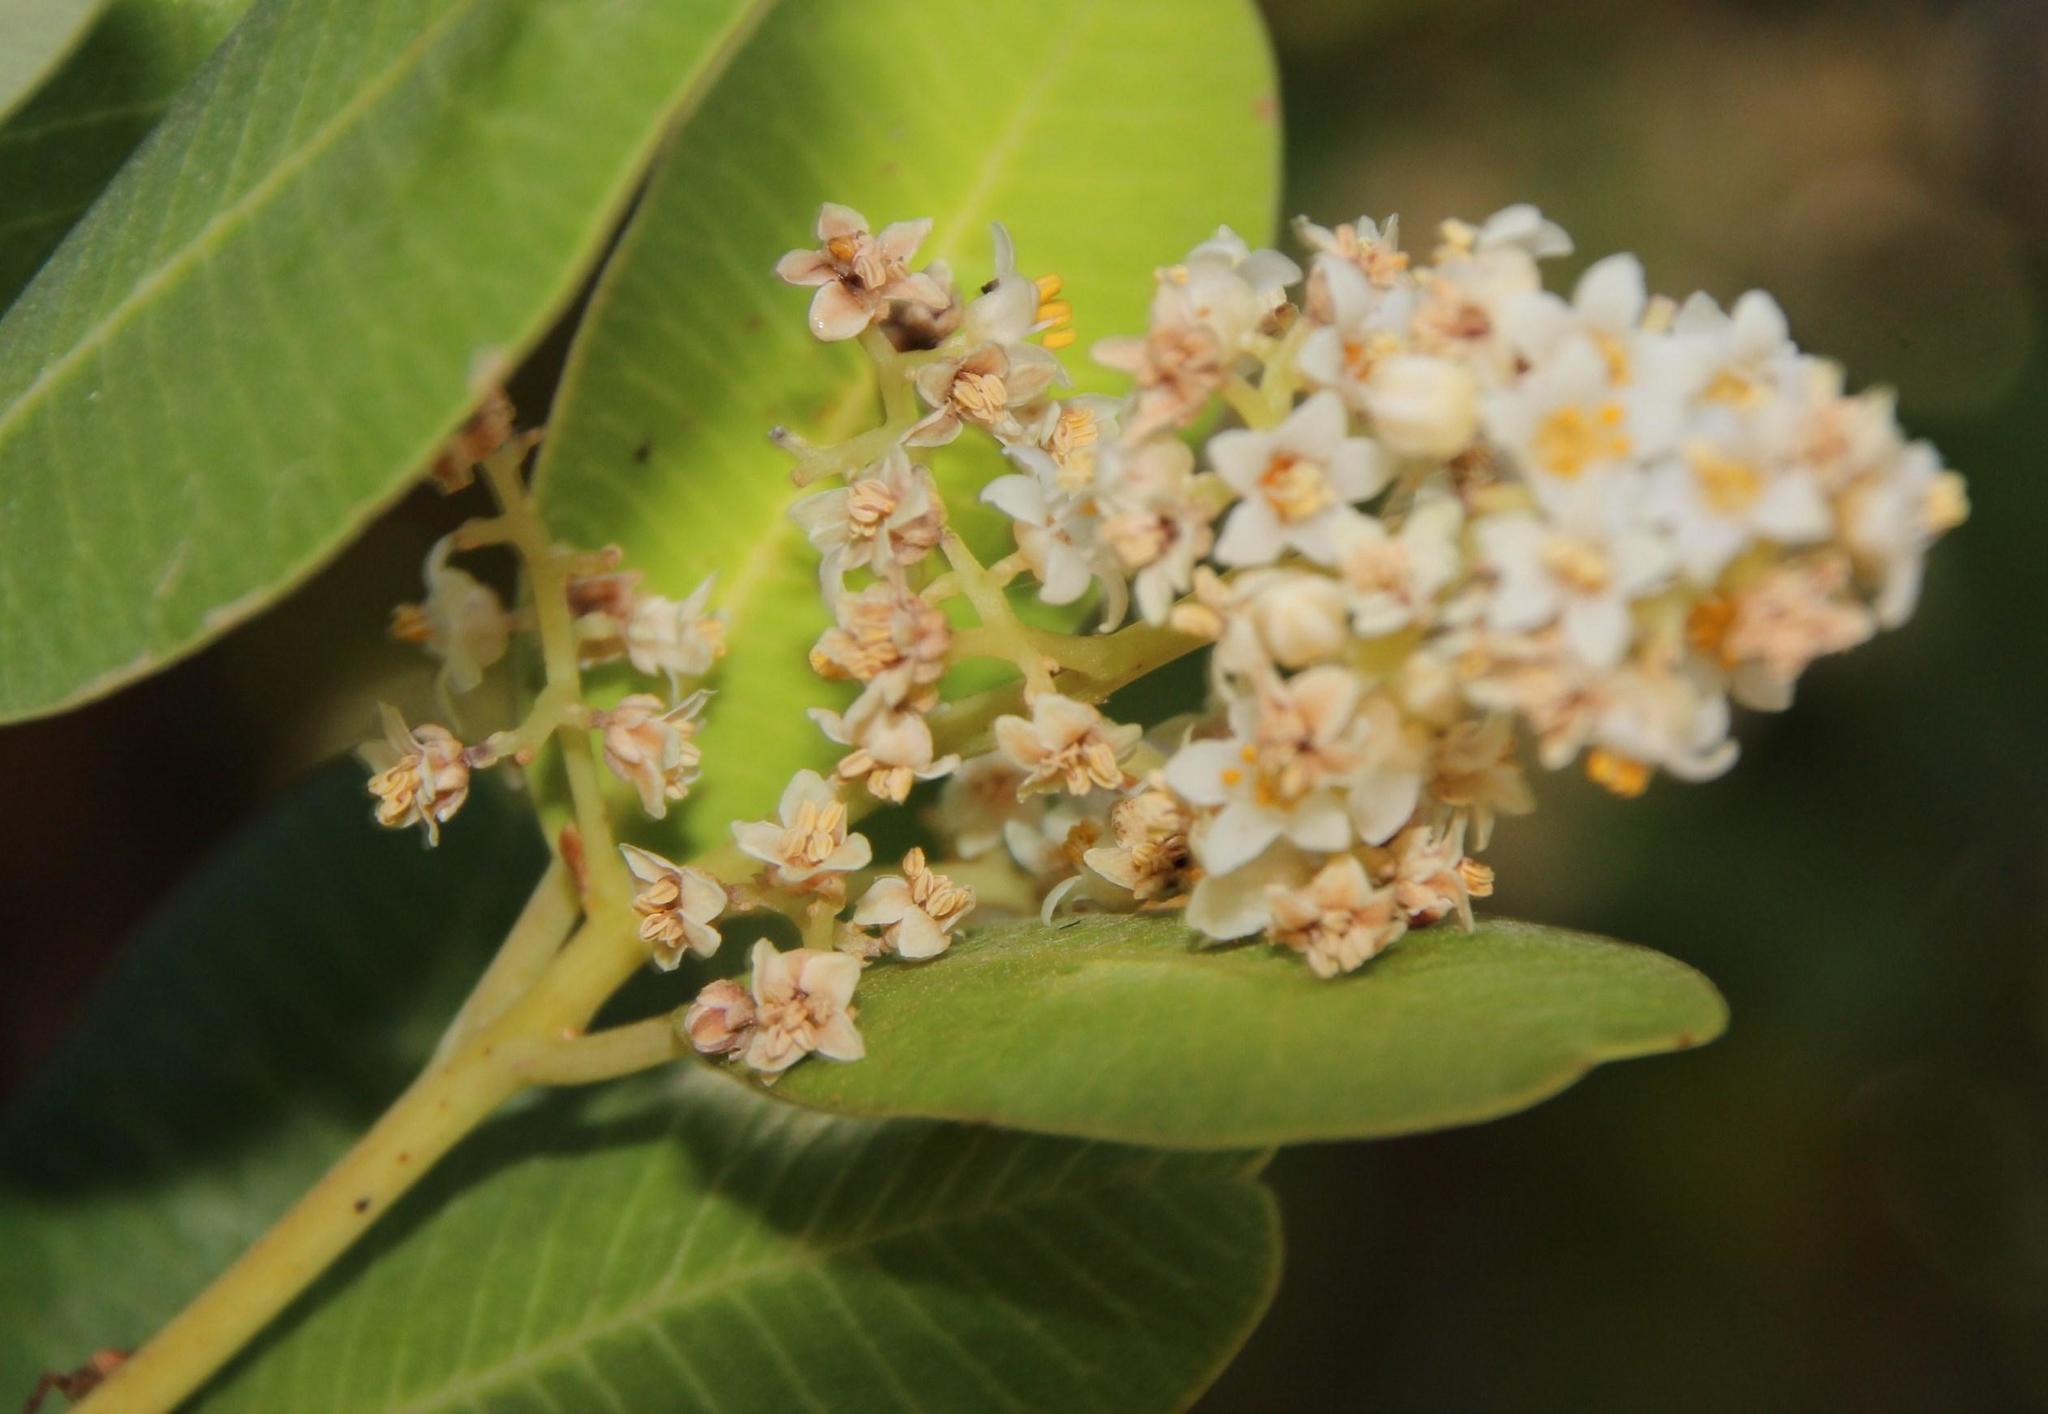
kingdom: Plantae
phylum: Tracheophyta
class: Magnoliopsida
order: Sapindales
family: Anacardiaceae
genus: Heeria
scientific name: Heeria argentea
